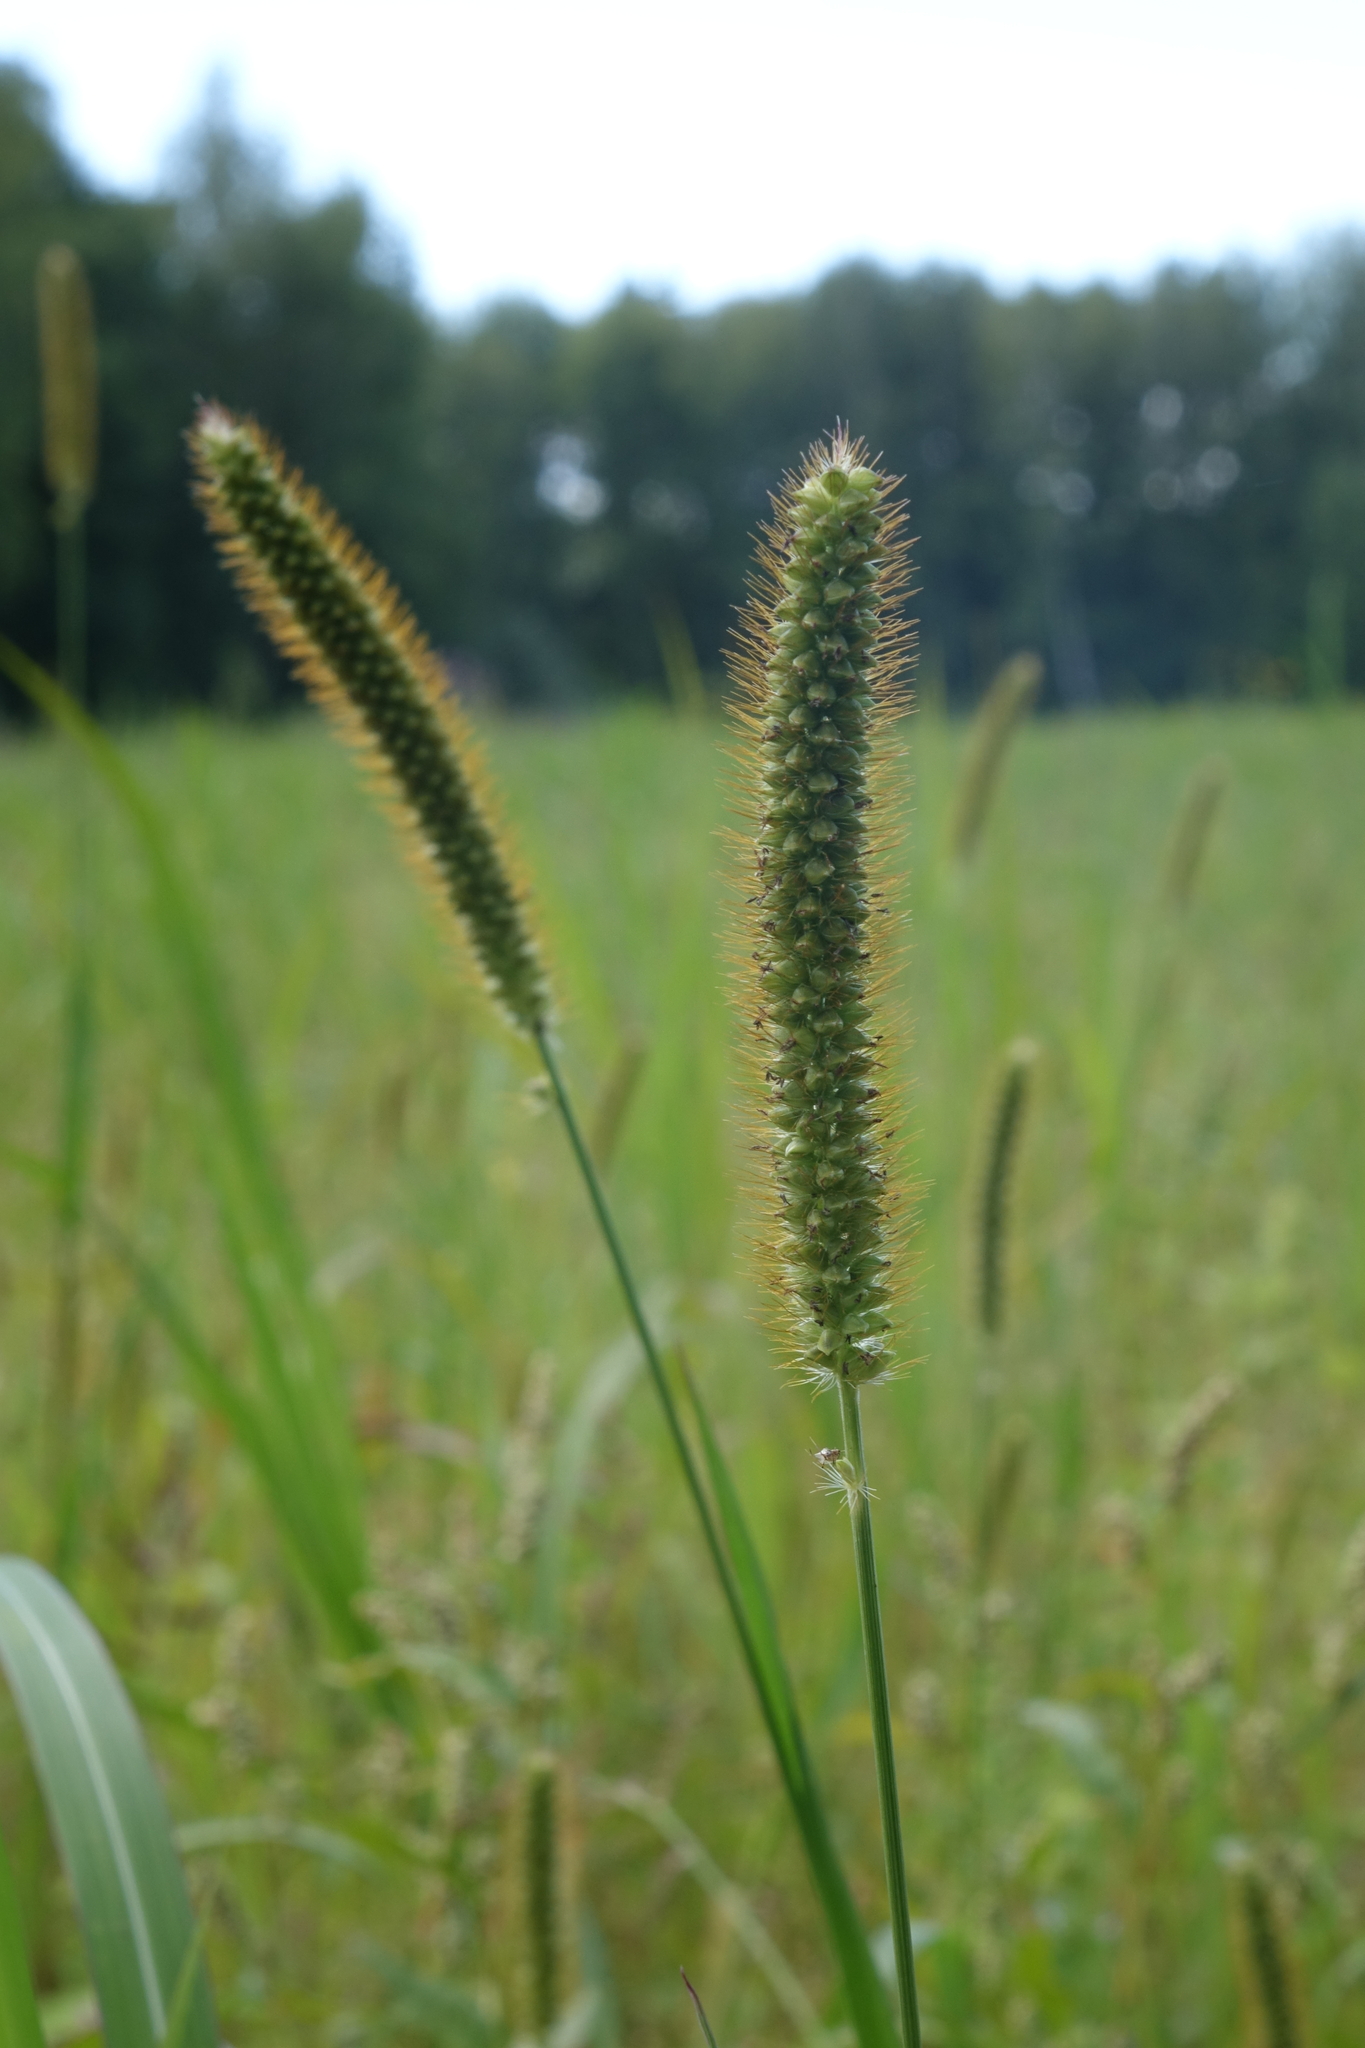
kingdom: Plantae
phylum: Tracheophyta
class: Liliopsida
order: Poales
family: Poaceae
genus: Setaria
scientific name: Setaria pumila
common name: Yellow bristle-grass
